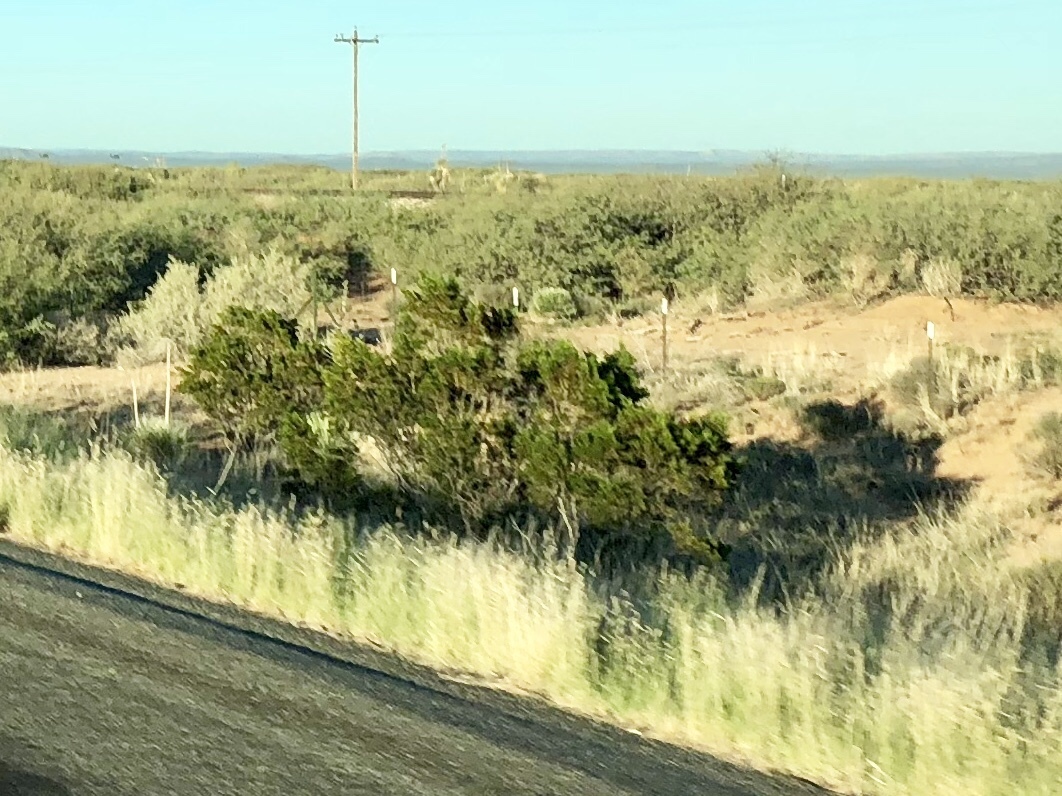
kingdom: Plantae
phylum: Tracheophyta
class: Magnoliopsida
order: Zygophyllales
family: Zygophyllaceae
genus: Larrea
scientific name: Larrea tridentata
